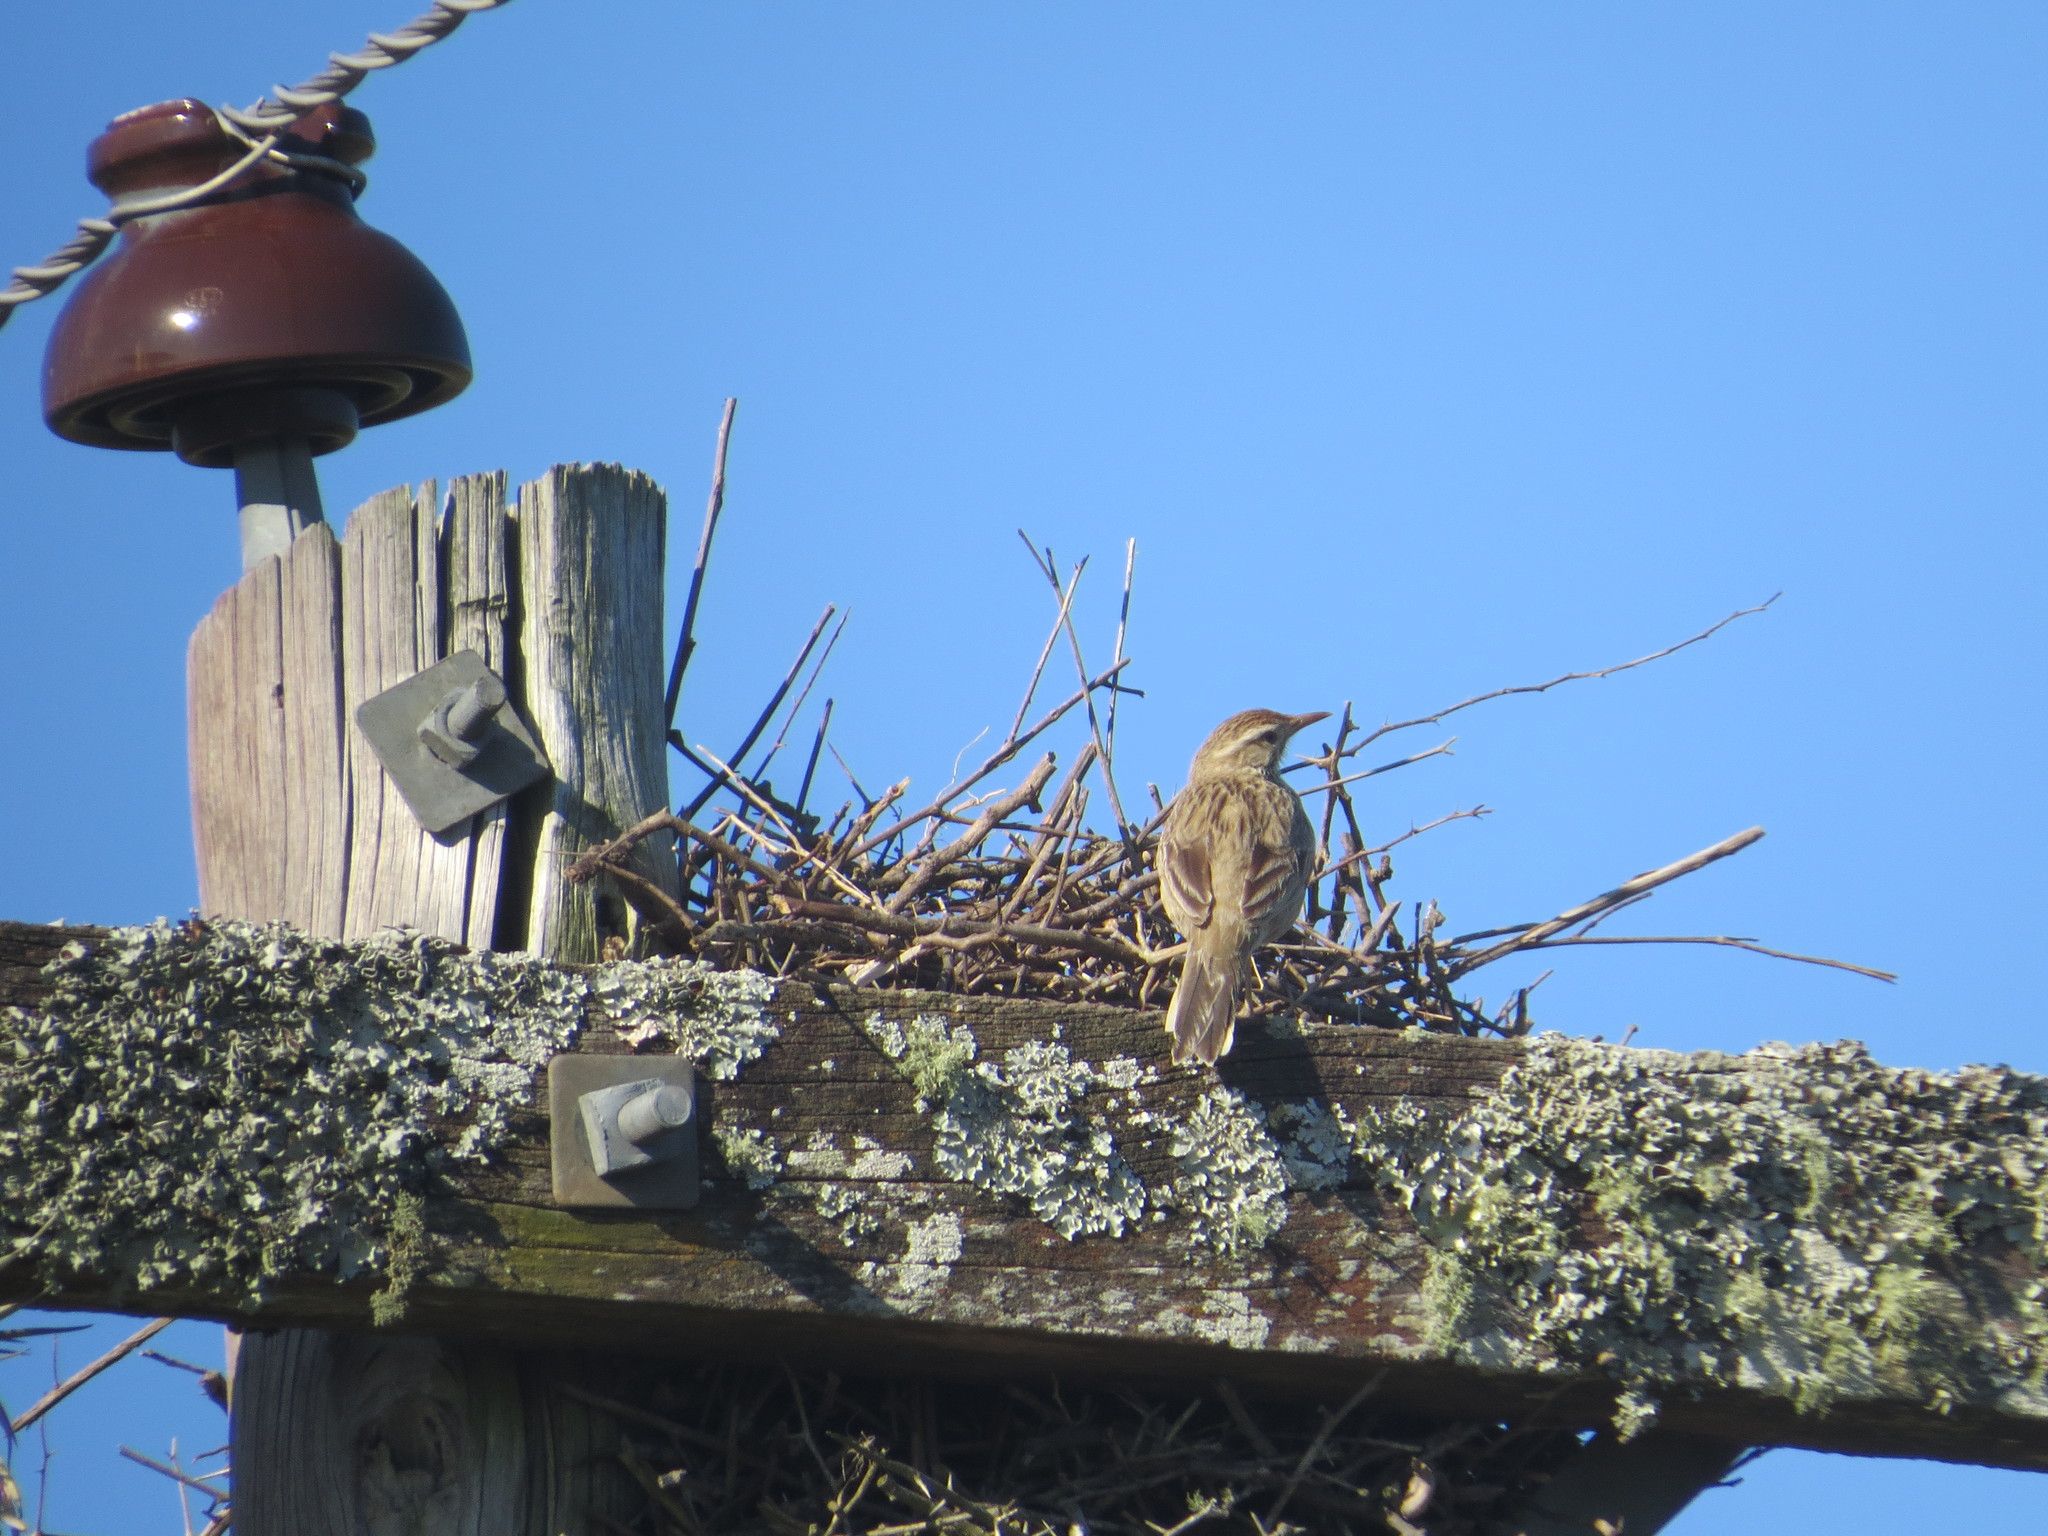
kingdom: Animalia
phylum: Chordata
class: Aves
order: Passeriformes
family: Furnariidae
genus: Anumbius
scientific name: Anumbius annumbi
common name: Firewood-gatherer
